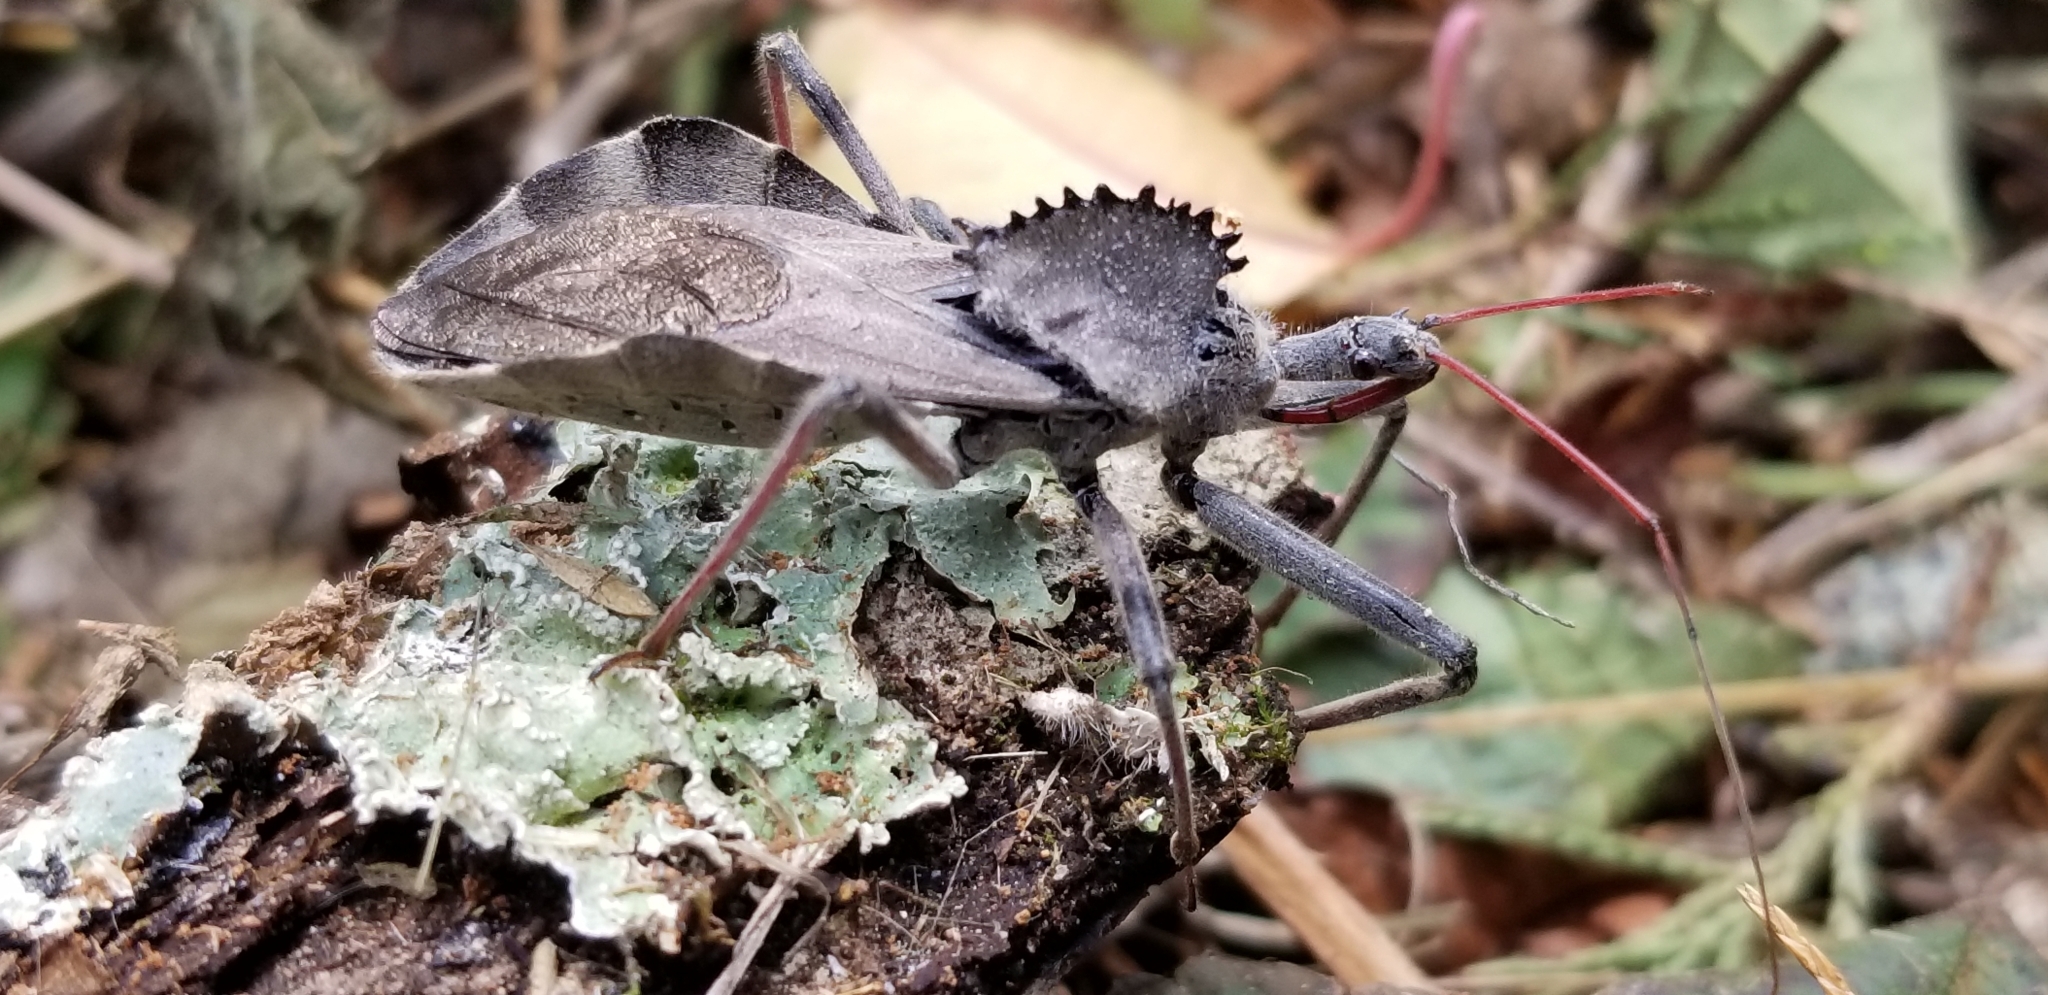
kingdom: Animalia
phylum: Arthropoda
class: Insecta
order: Hemiptera
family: Reduviidae
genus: Arilus
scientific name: Arilus cristatus
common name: North american wheel bug
